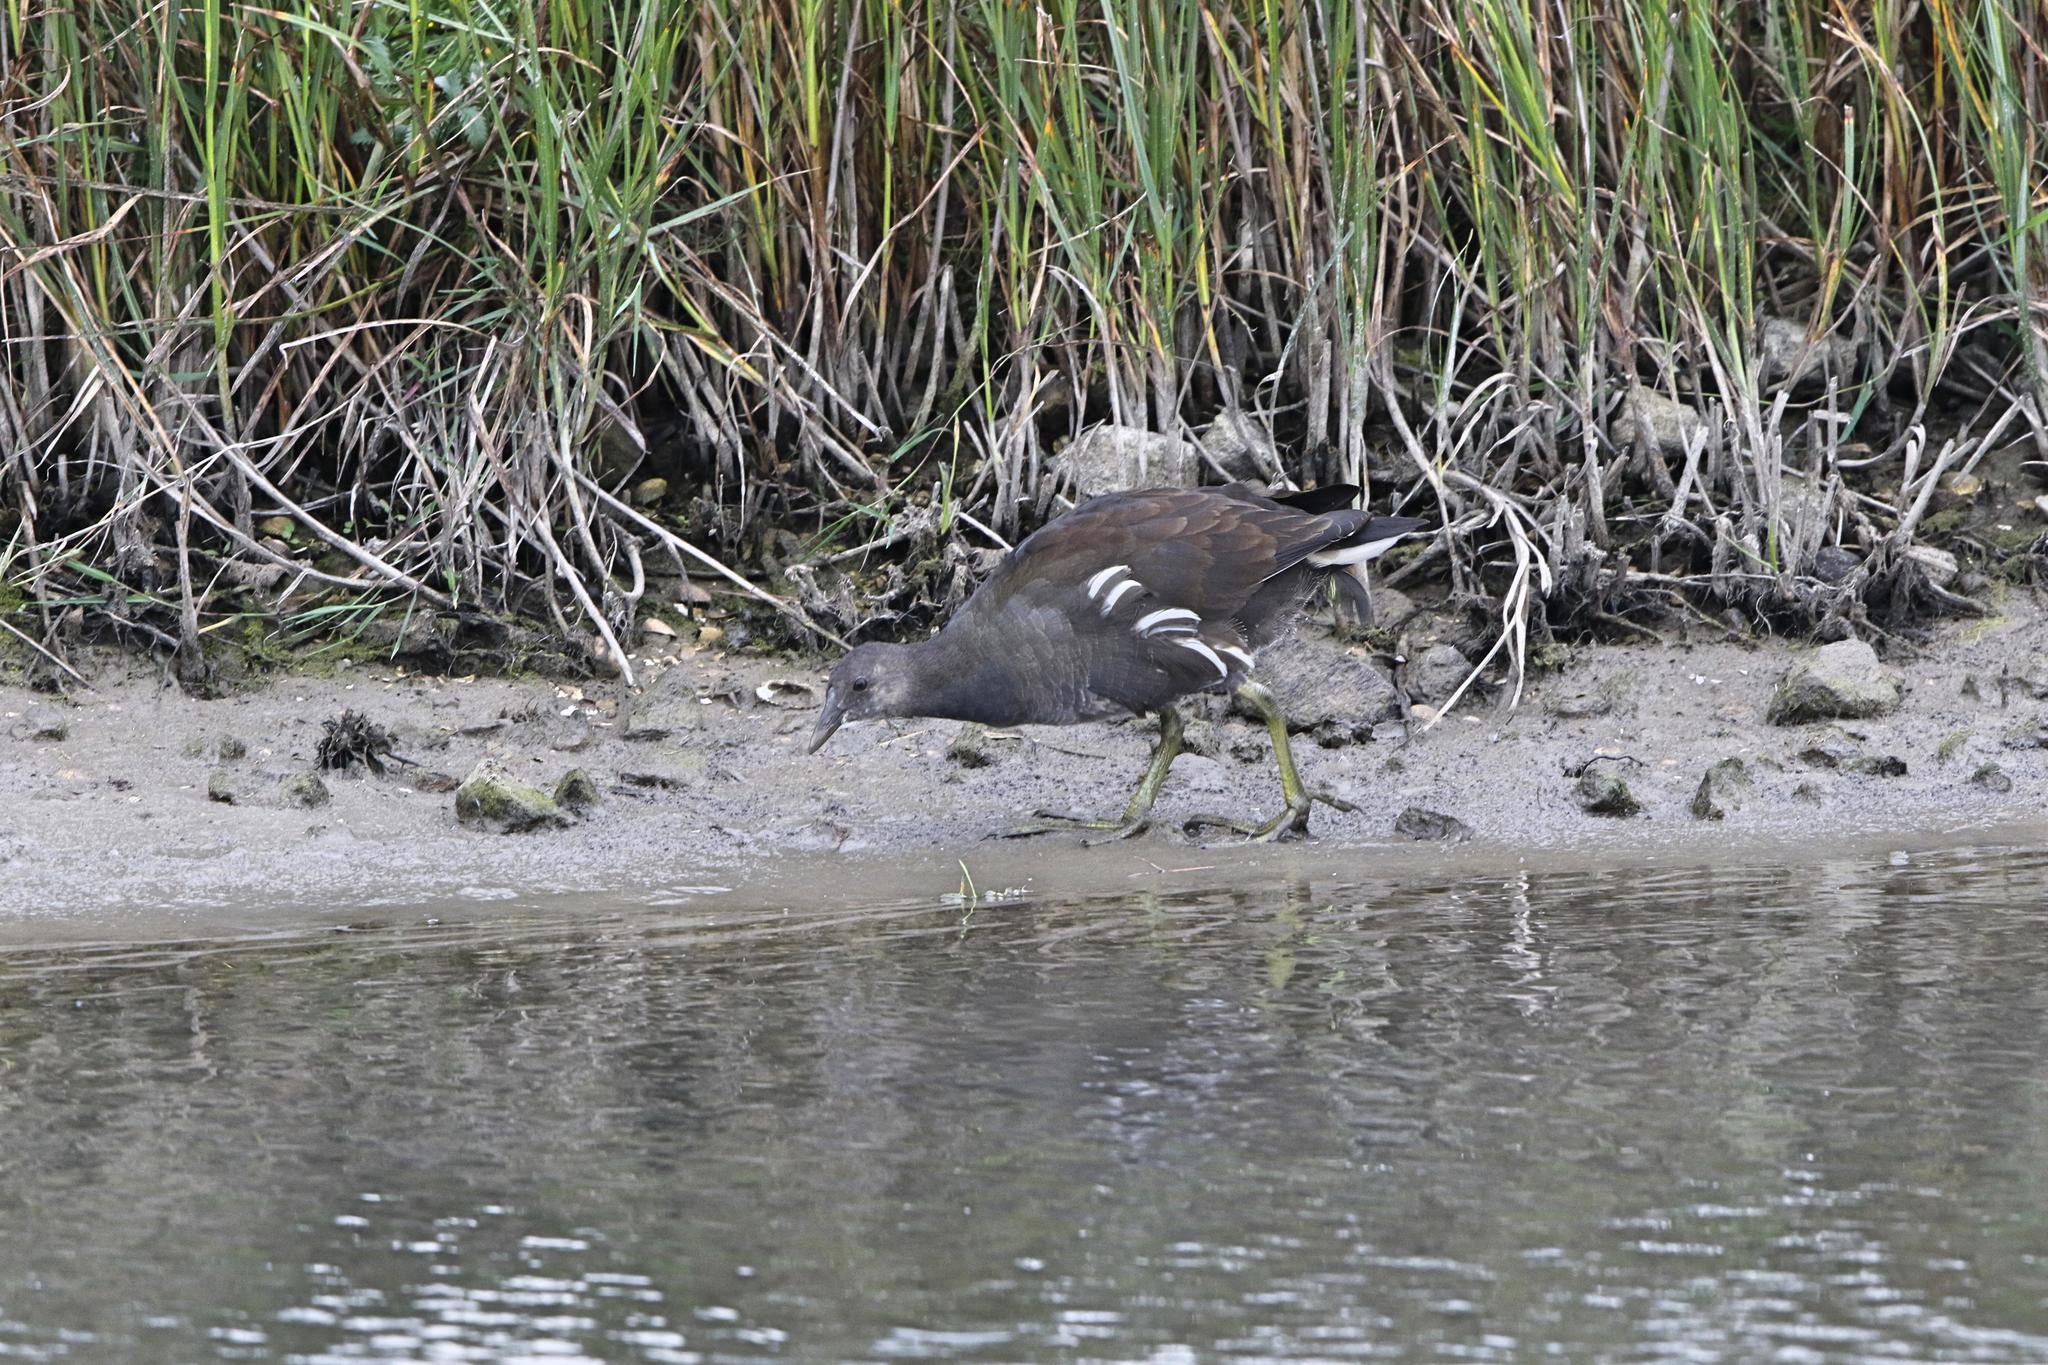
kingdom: Animalia
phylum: Chordata
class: Aves
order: Gruiformes
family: Rallidae
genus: Gallinula
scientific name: Gallinula chloropus
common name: Common moorhen
